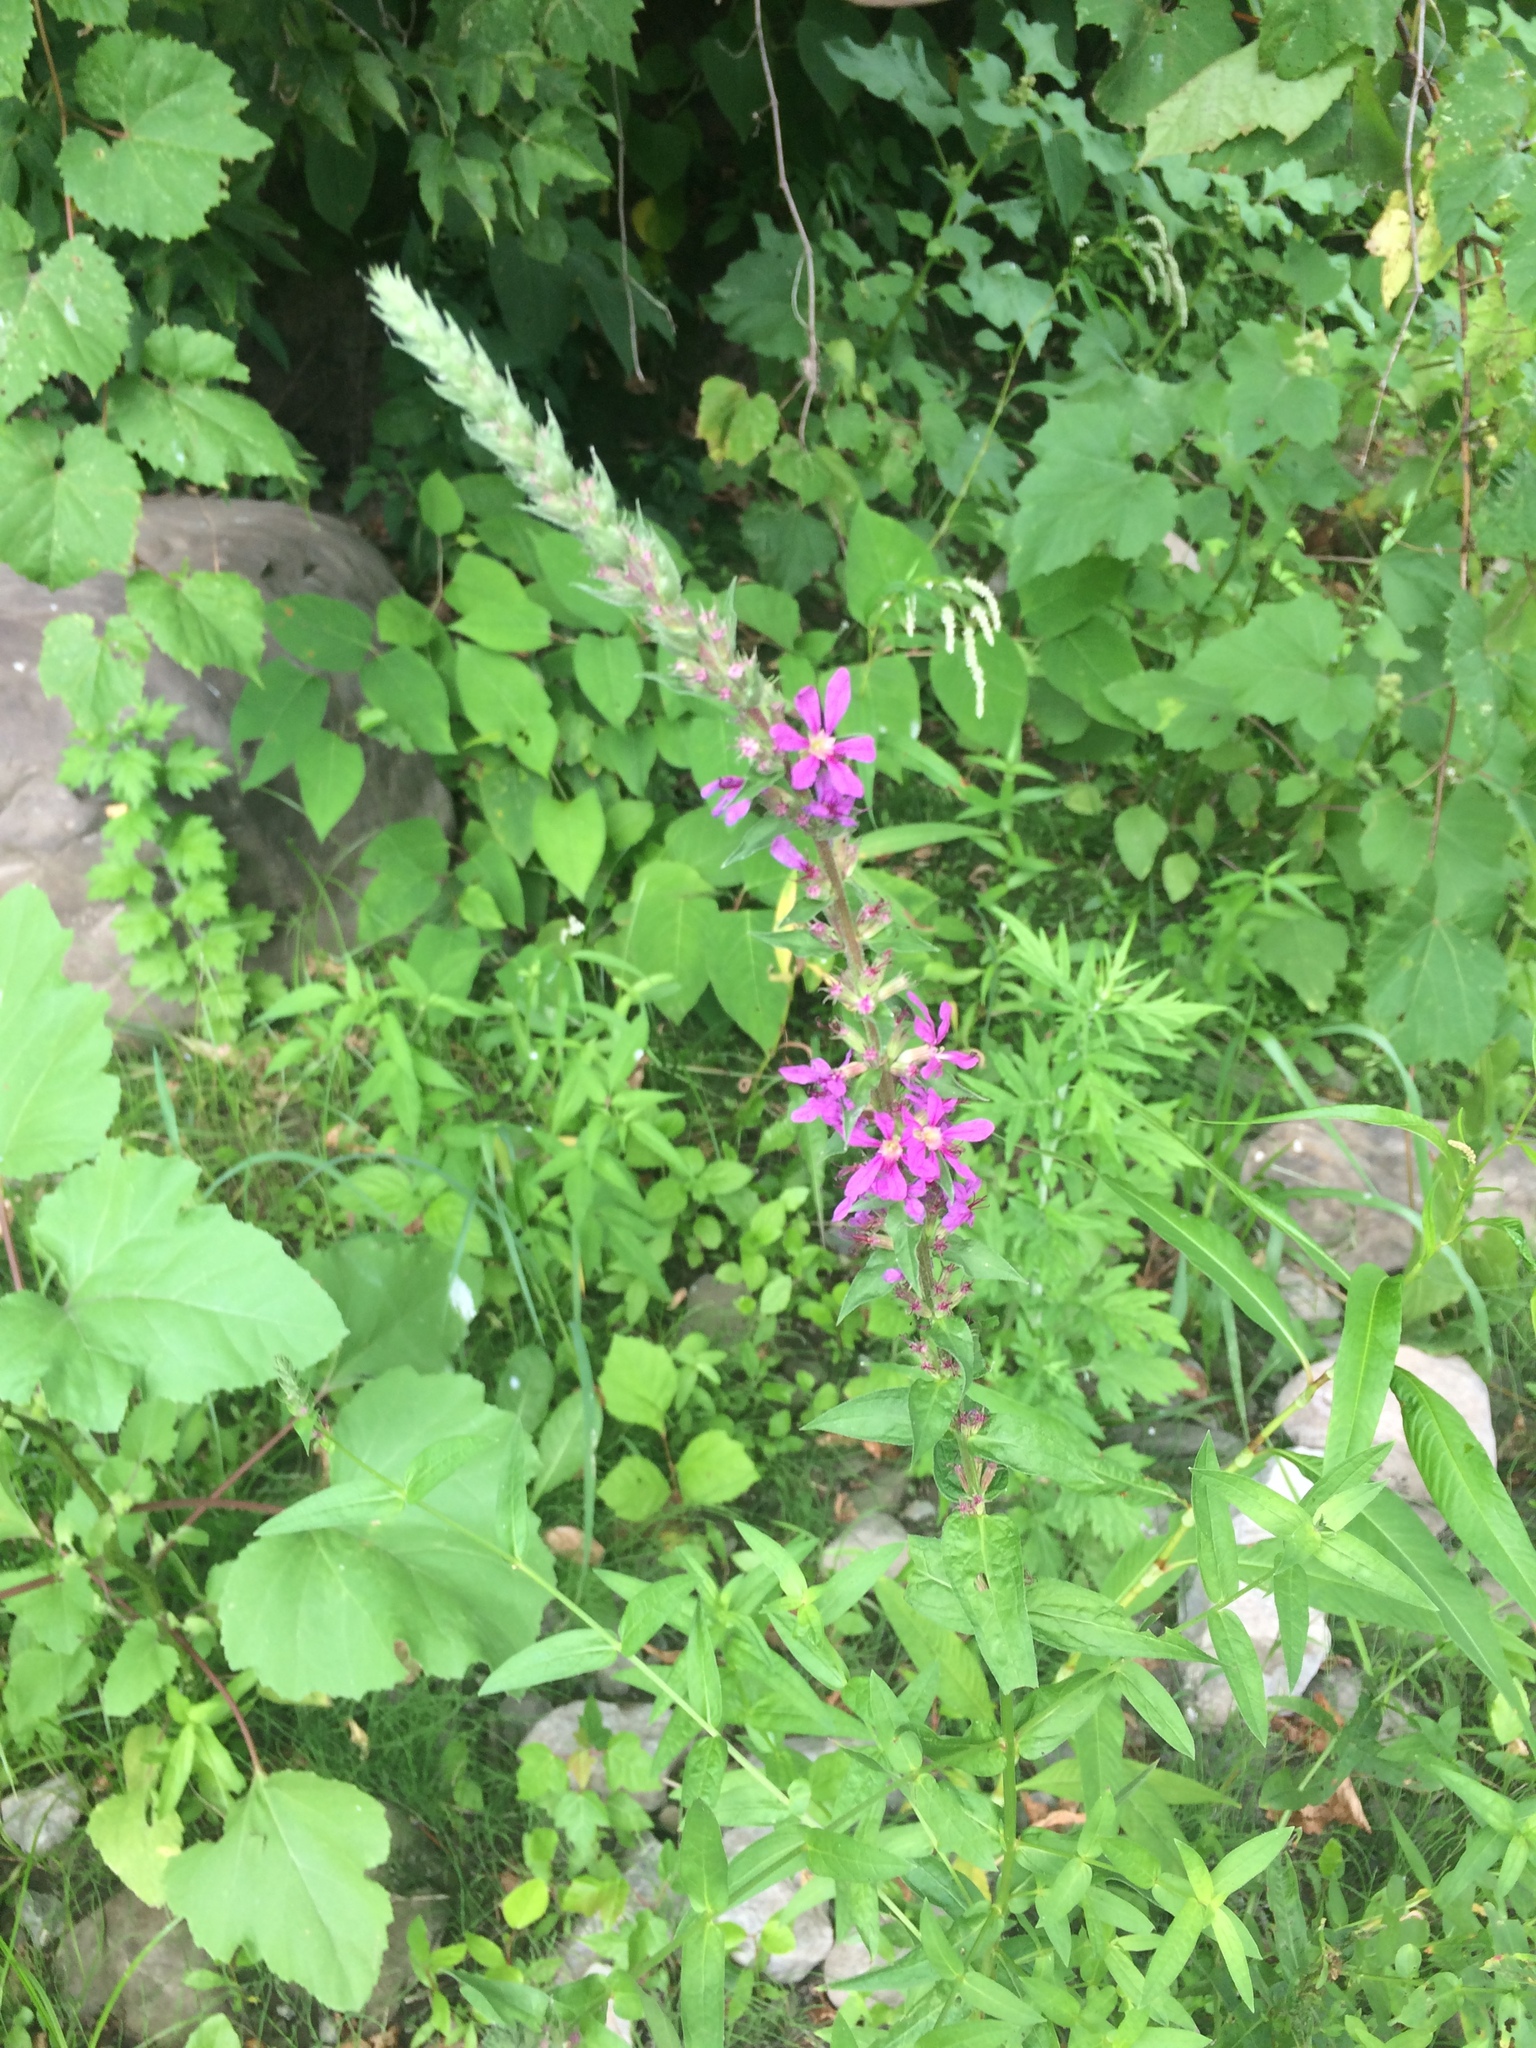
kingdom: Plantae
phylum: Tracheophyta
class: Magnoliopsida
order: Myrtales
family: Lythraceae
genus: Lythrum
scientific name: Lythrum salicaria
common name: Purple loosestrife
